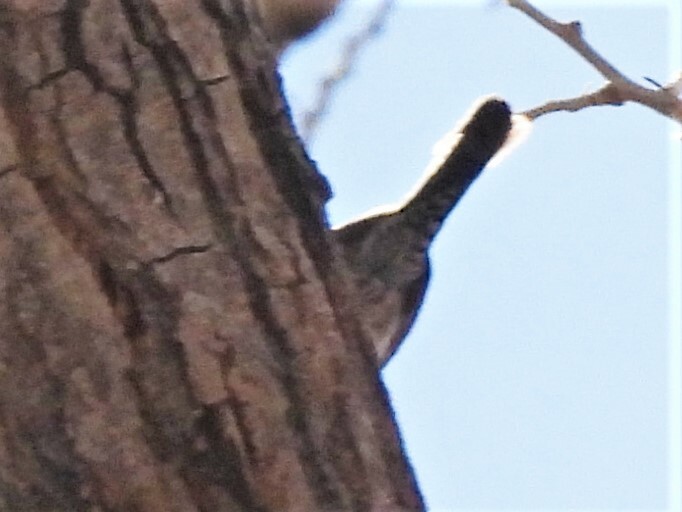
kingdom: Animalia
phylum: Chordata
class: Aves
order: Passeriformes
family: Troglodytidae
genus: Thryomanes
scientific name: Thryomanes bewickii
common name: Bewick's wren
